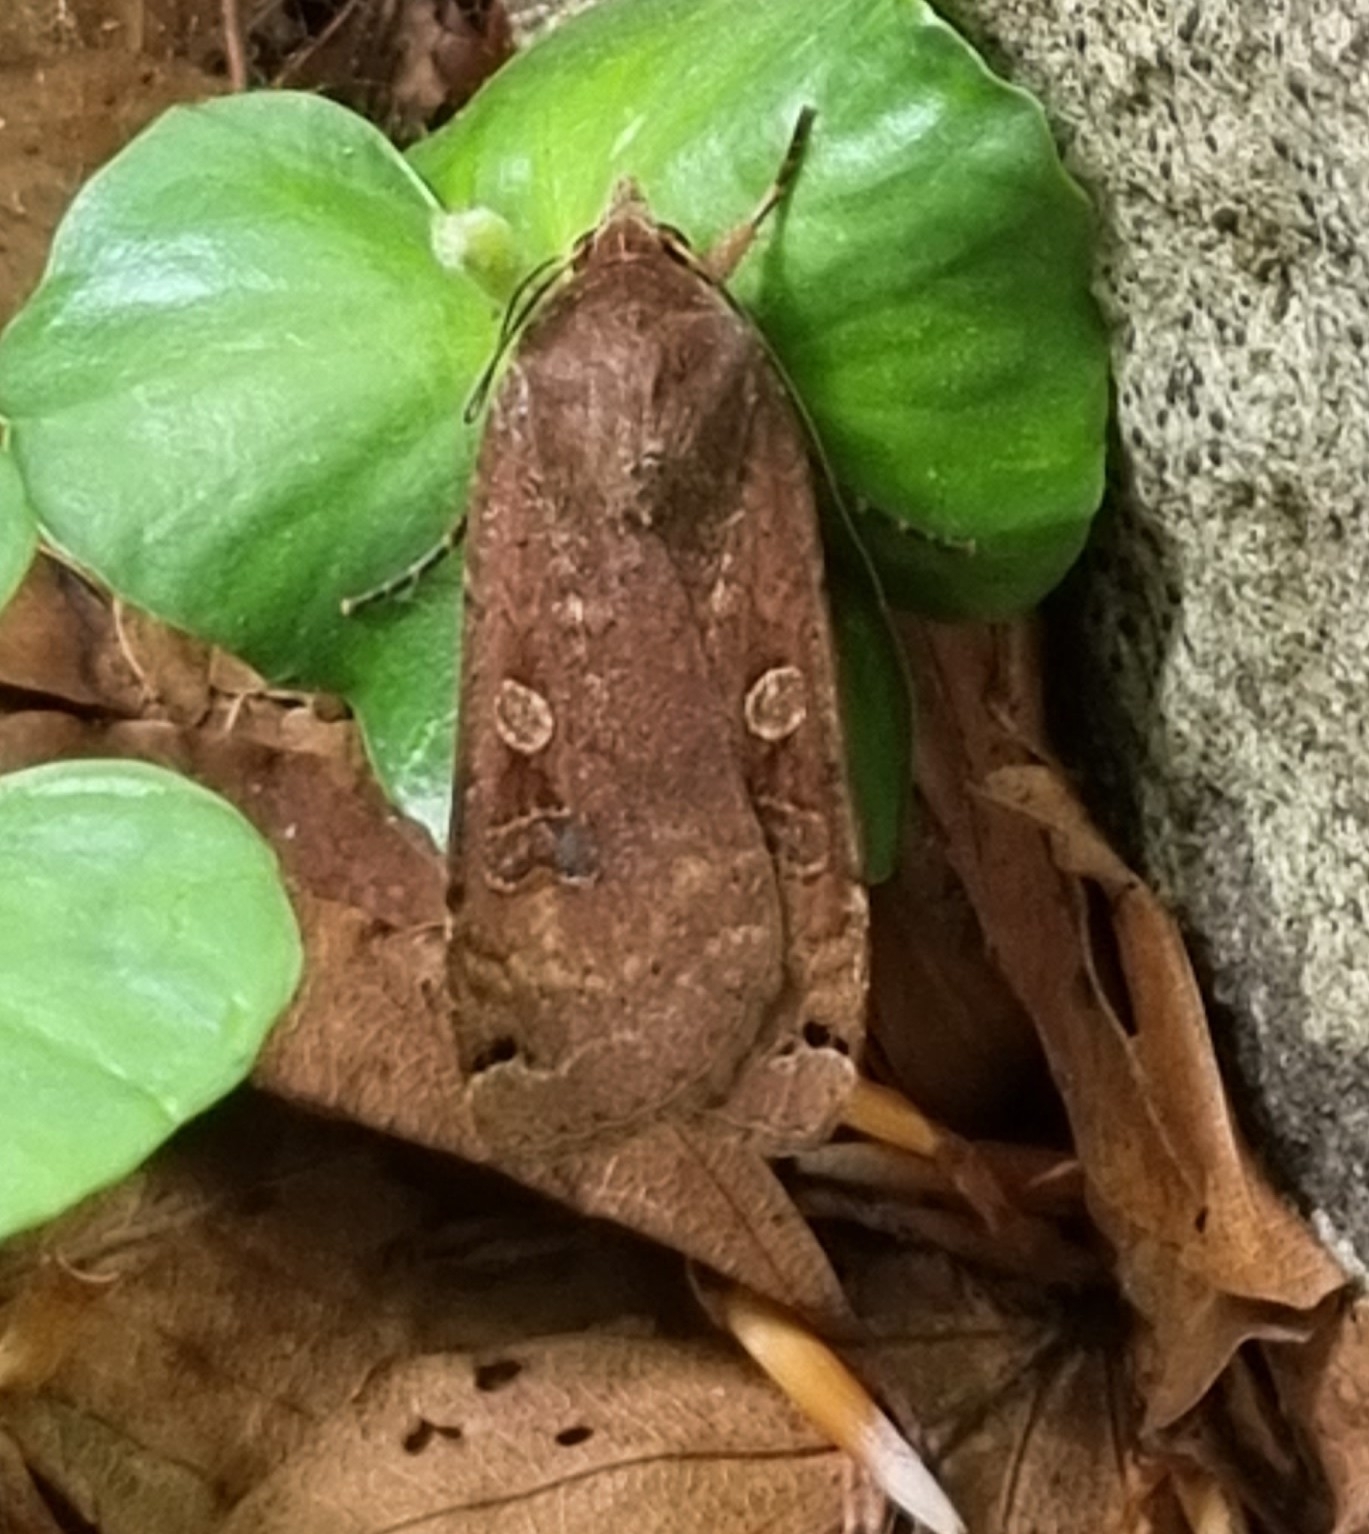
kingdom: Animalia
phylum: Arthropoda
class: Insecta
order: Lepidoptera
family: Noctuidae
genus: Noctua
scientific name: Noctua pronuba
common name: Large yellow underwing
